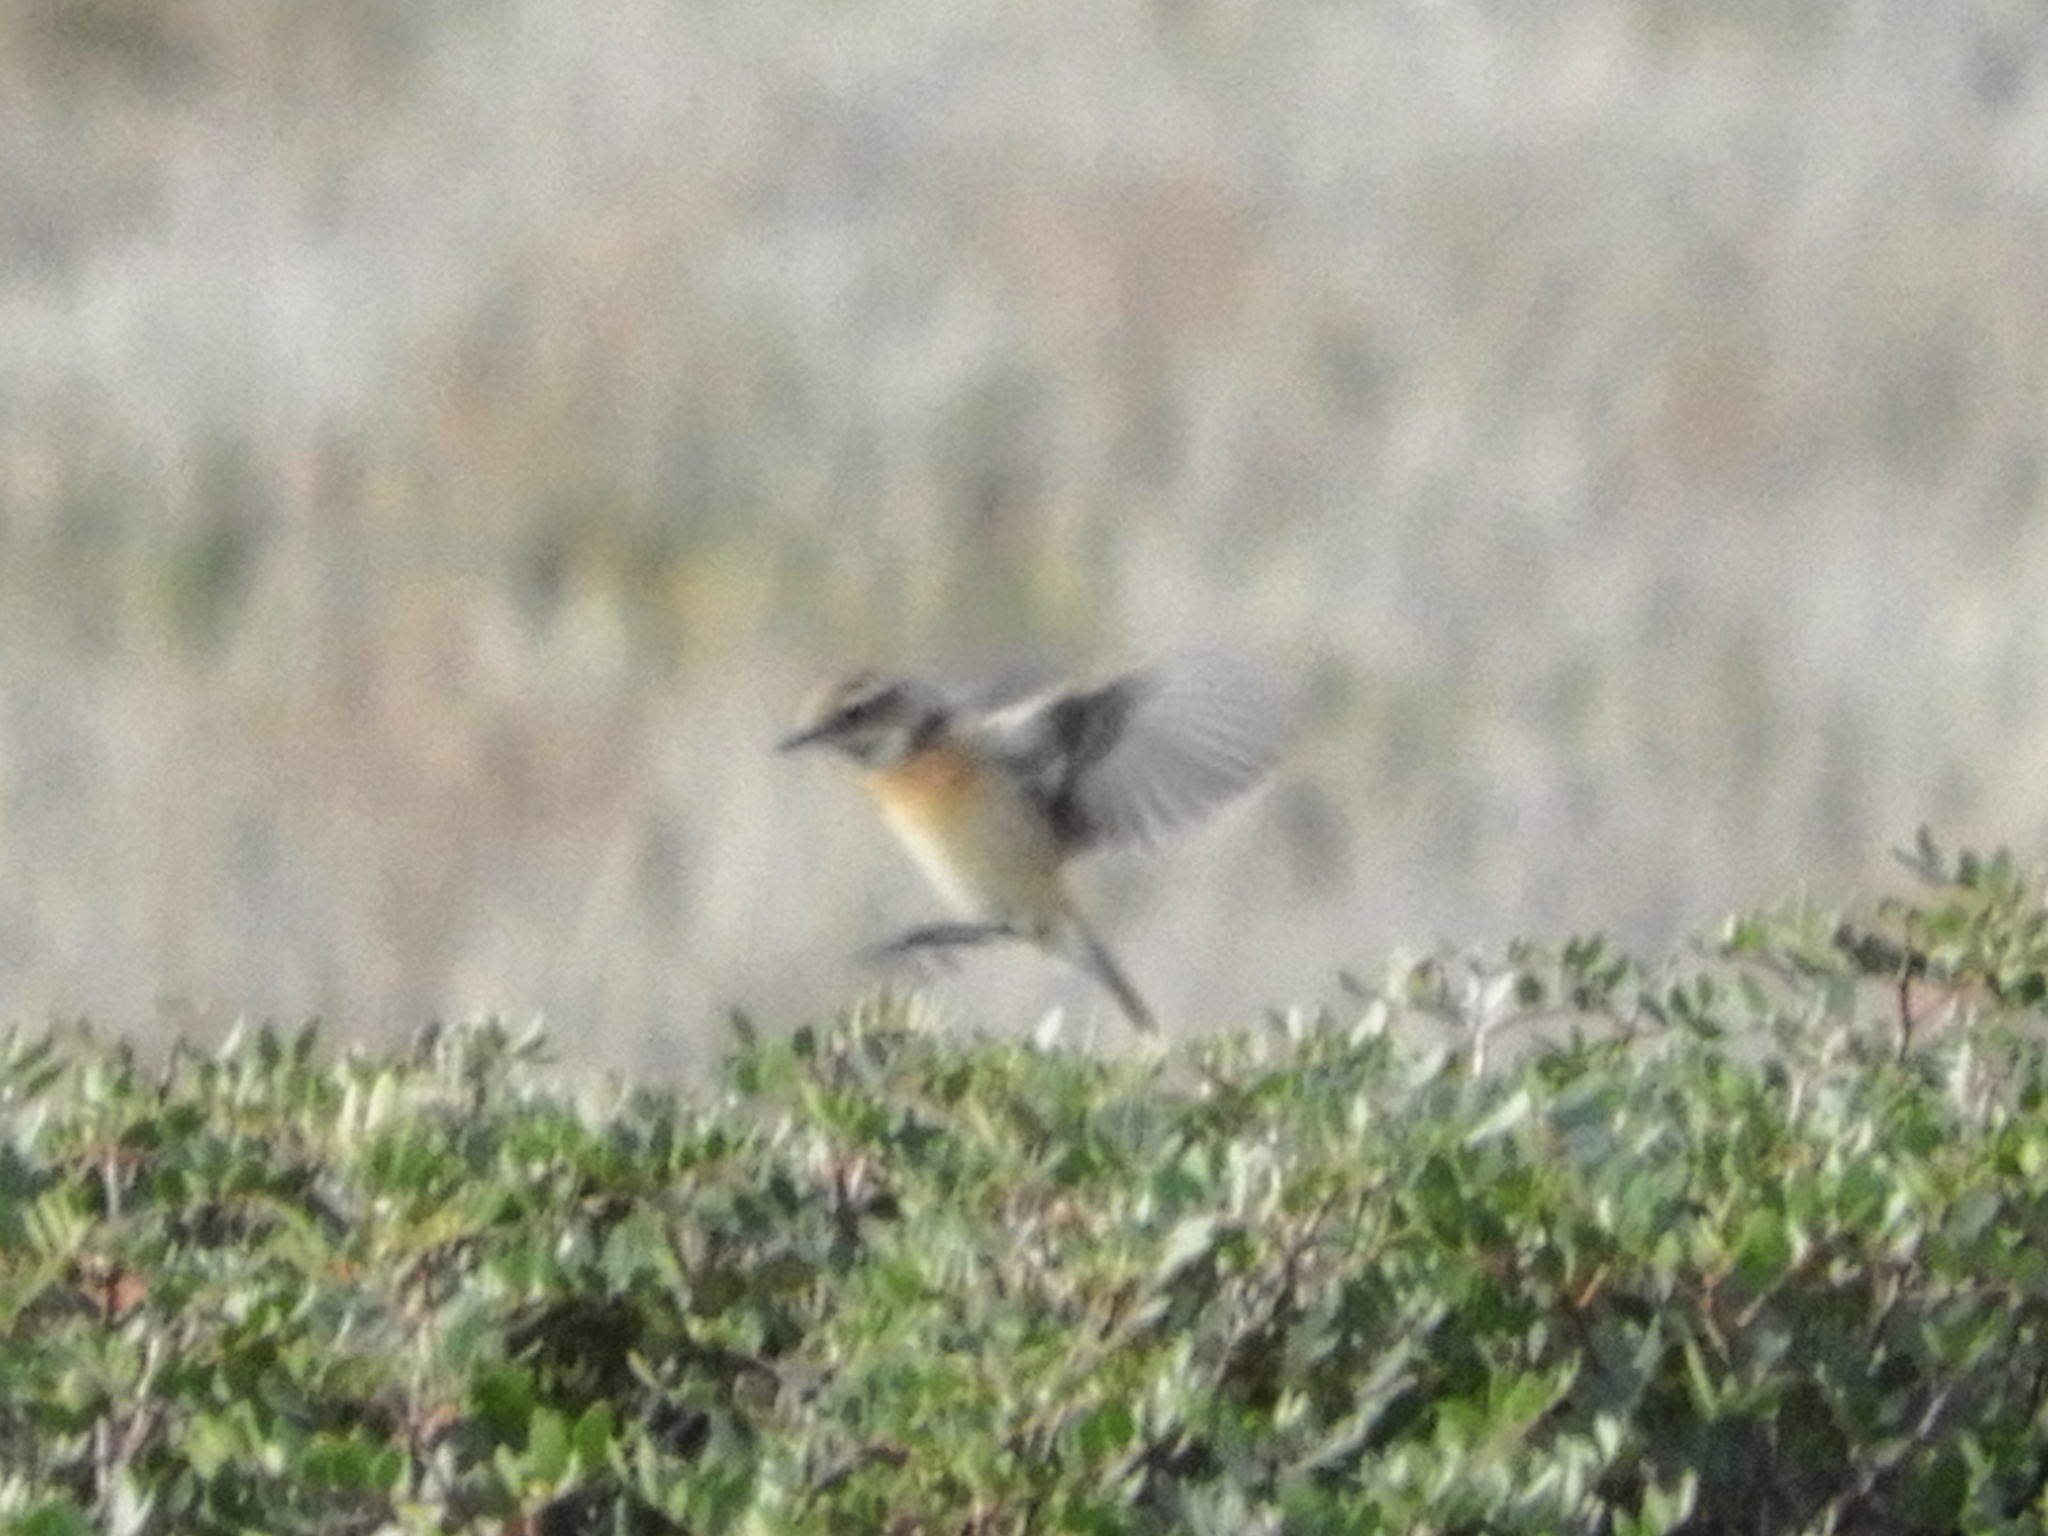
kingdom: Animalia
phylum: Chordata
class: Aves
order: Passeriformes
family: Muscicapidae
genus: Saxicola
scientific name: Saxicola rubetra
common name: Whinchat
